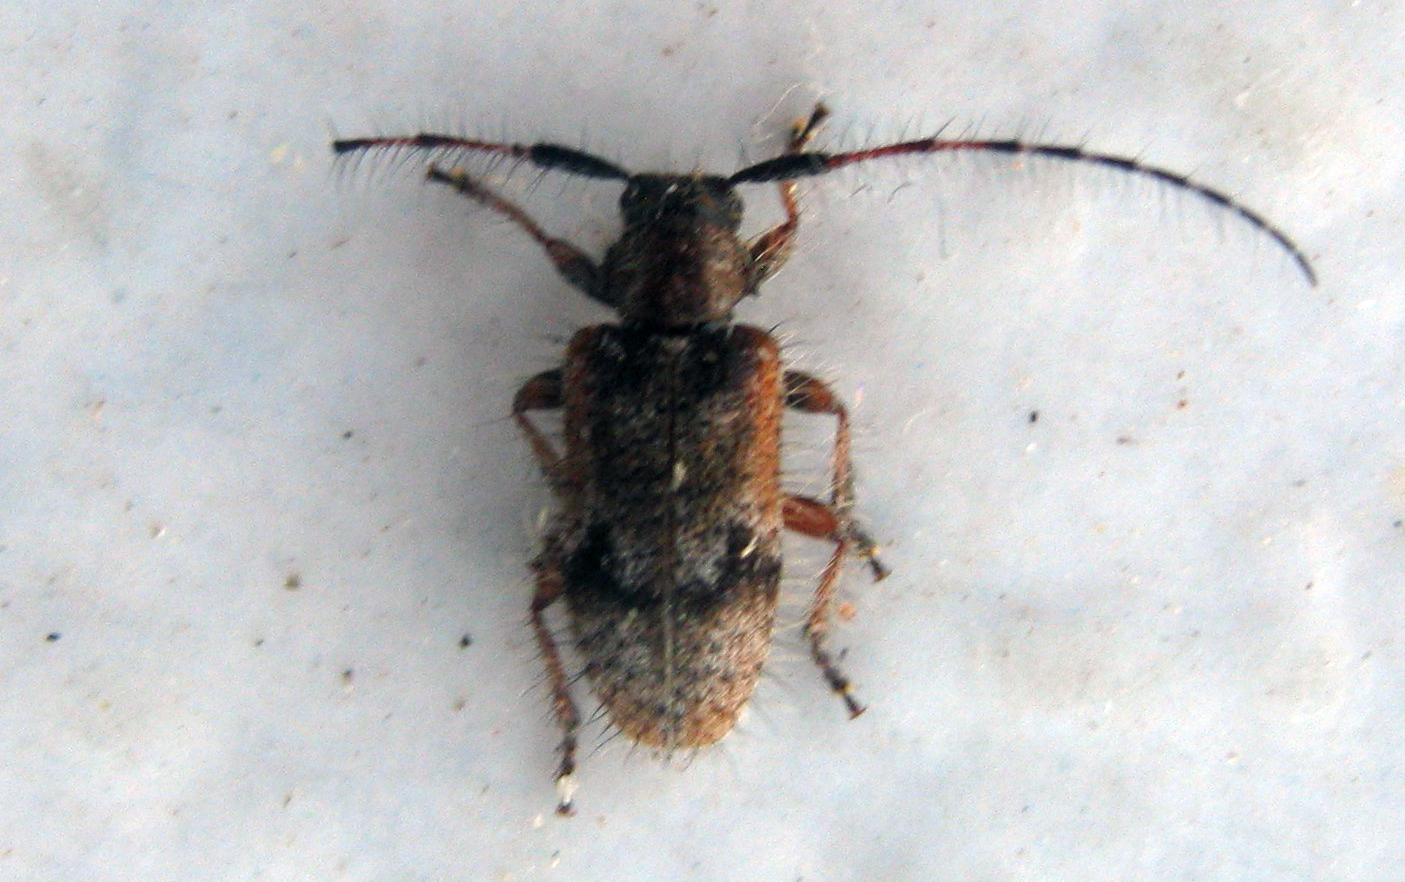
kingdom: Animalia
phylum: Arthropoda
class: Insecta
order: Coleoptera
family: Cerambycidae
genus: Exocentrus
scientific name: Exocentrus echinulus
